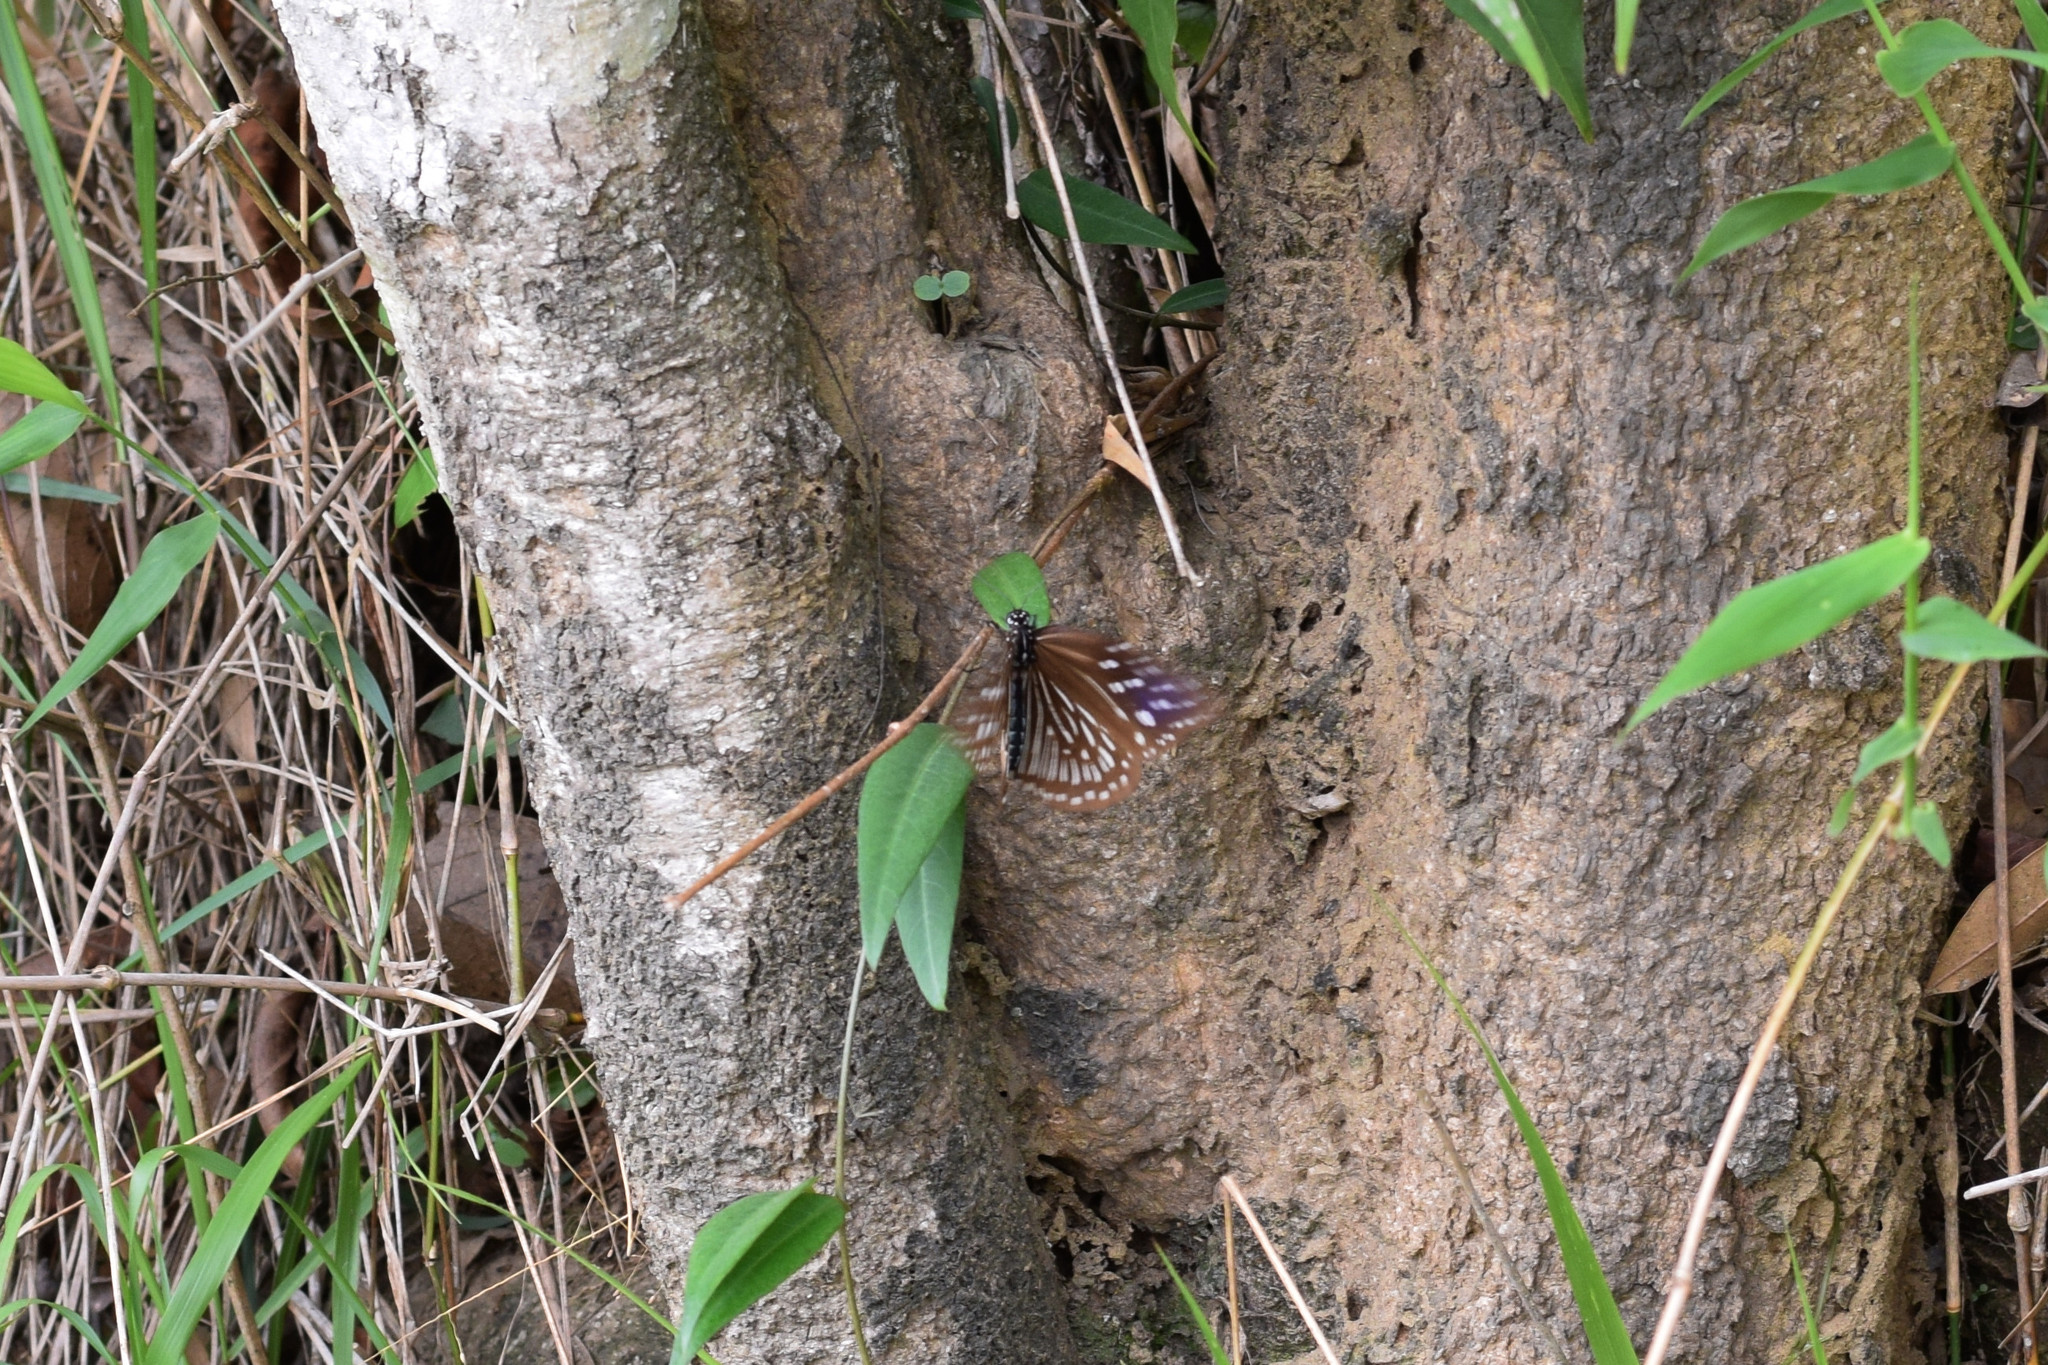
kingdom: Animalia
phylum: Arthropoda
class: Insecta
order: Lepidoptera
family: Nymphalidae
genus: Euploea
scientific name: Euploea mulciber
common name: Striped blue crow butterfly
